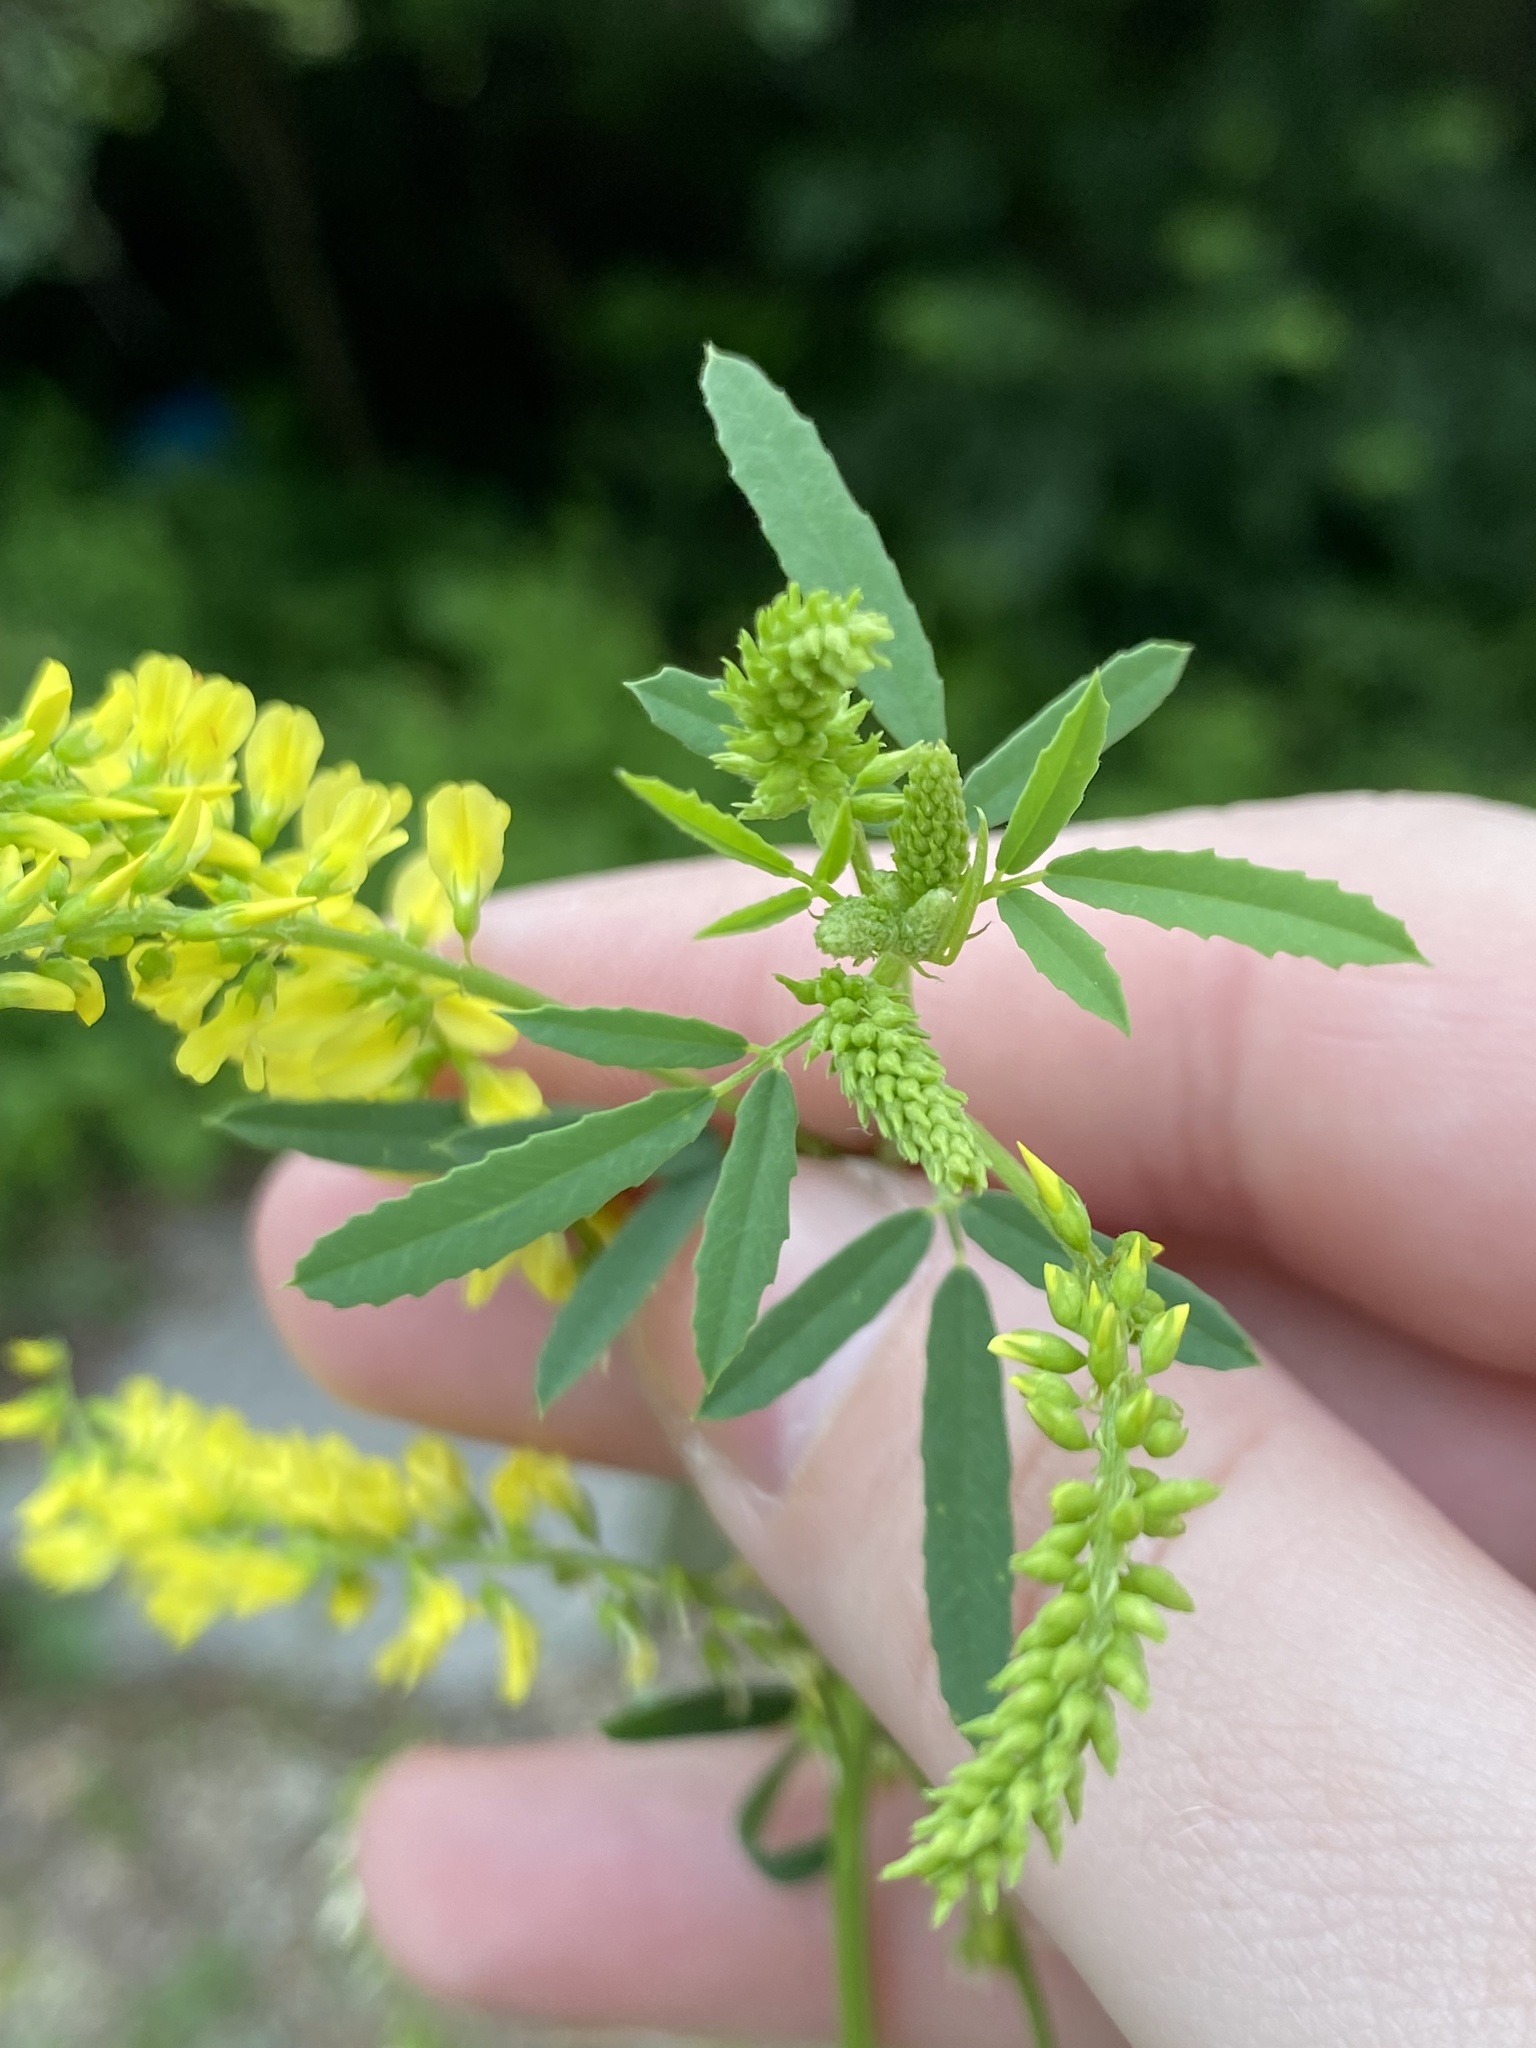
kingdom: Plantae
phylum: Tracheophyta
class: Magnoliopsida
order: Fabales
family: Fabaceae
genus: Melilotus
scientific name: Melilotus officinalis
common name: Sweetclover
